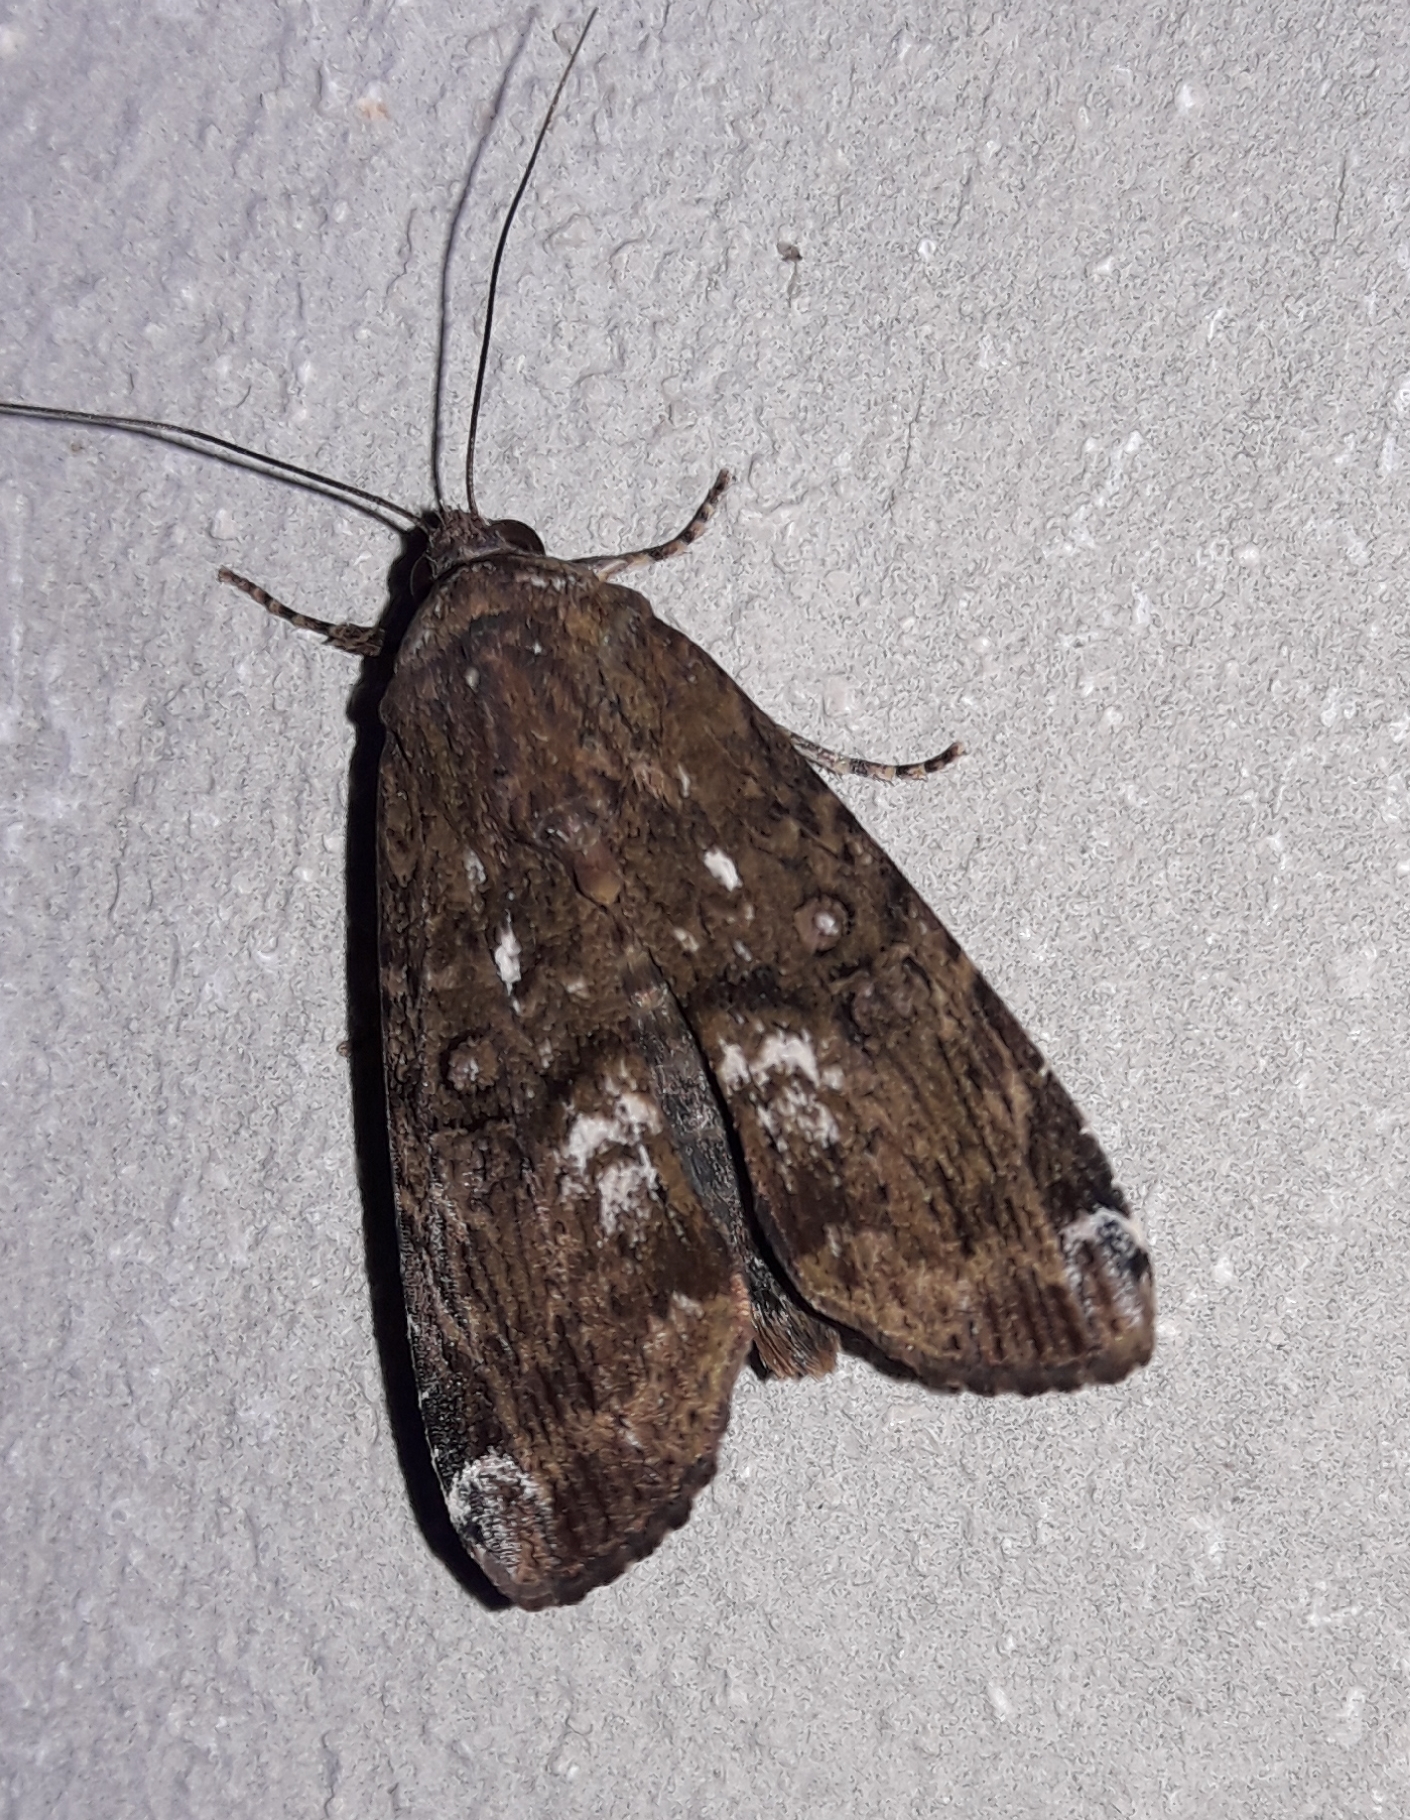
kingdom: Animalia
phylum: Arthropoda
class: Insecta
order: Lepidoptera
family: Noctuidae
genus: Magusa
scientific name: Magusa divaricata
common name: Orb narrow-winged moth
